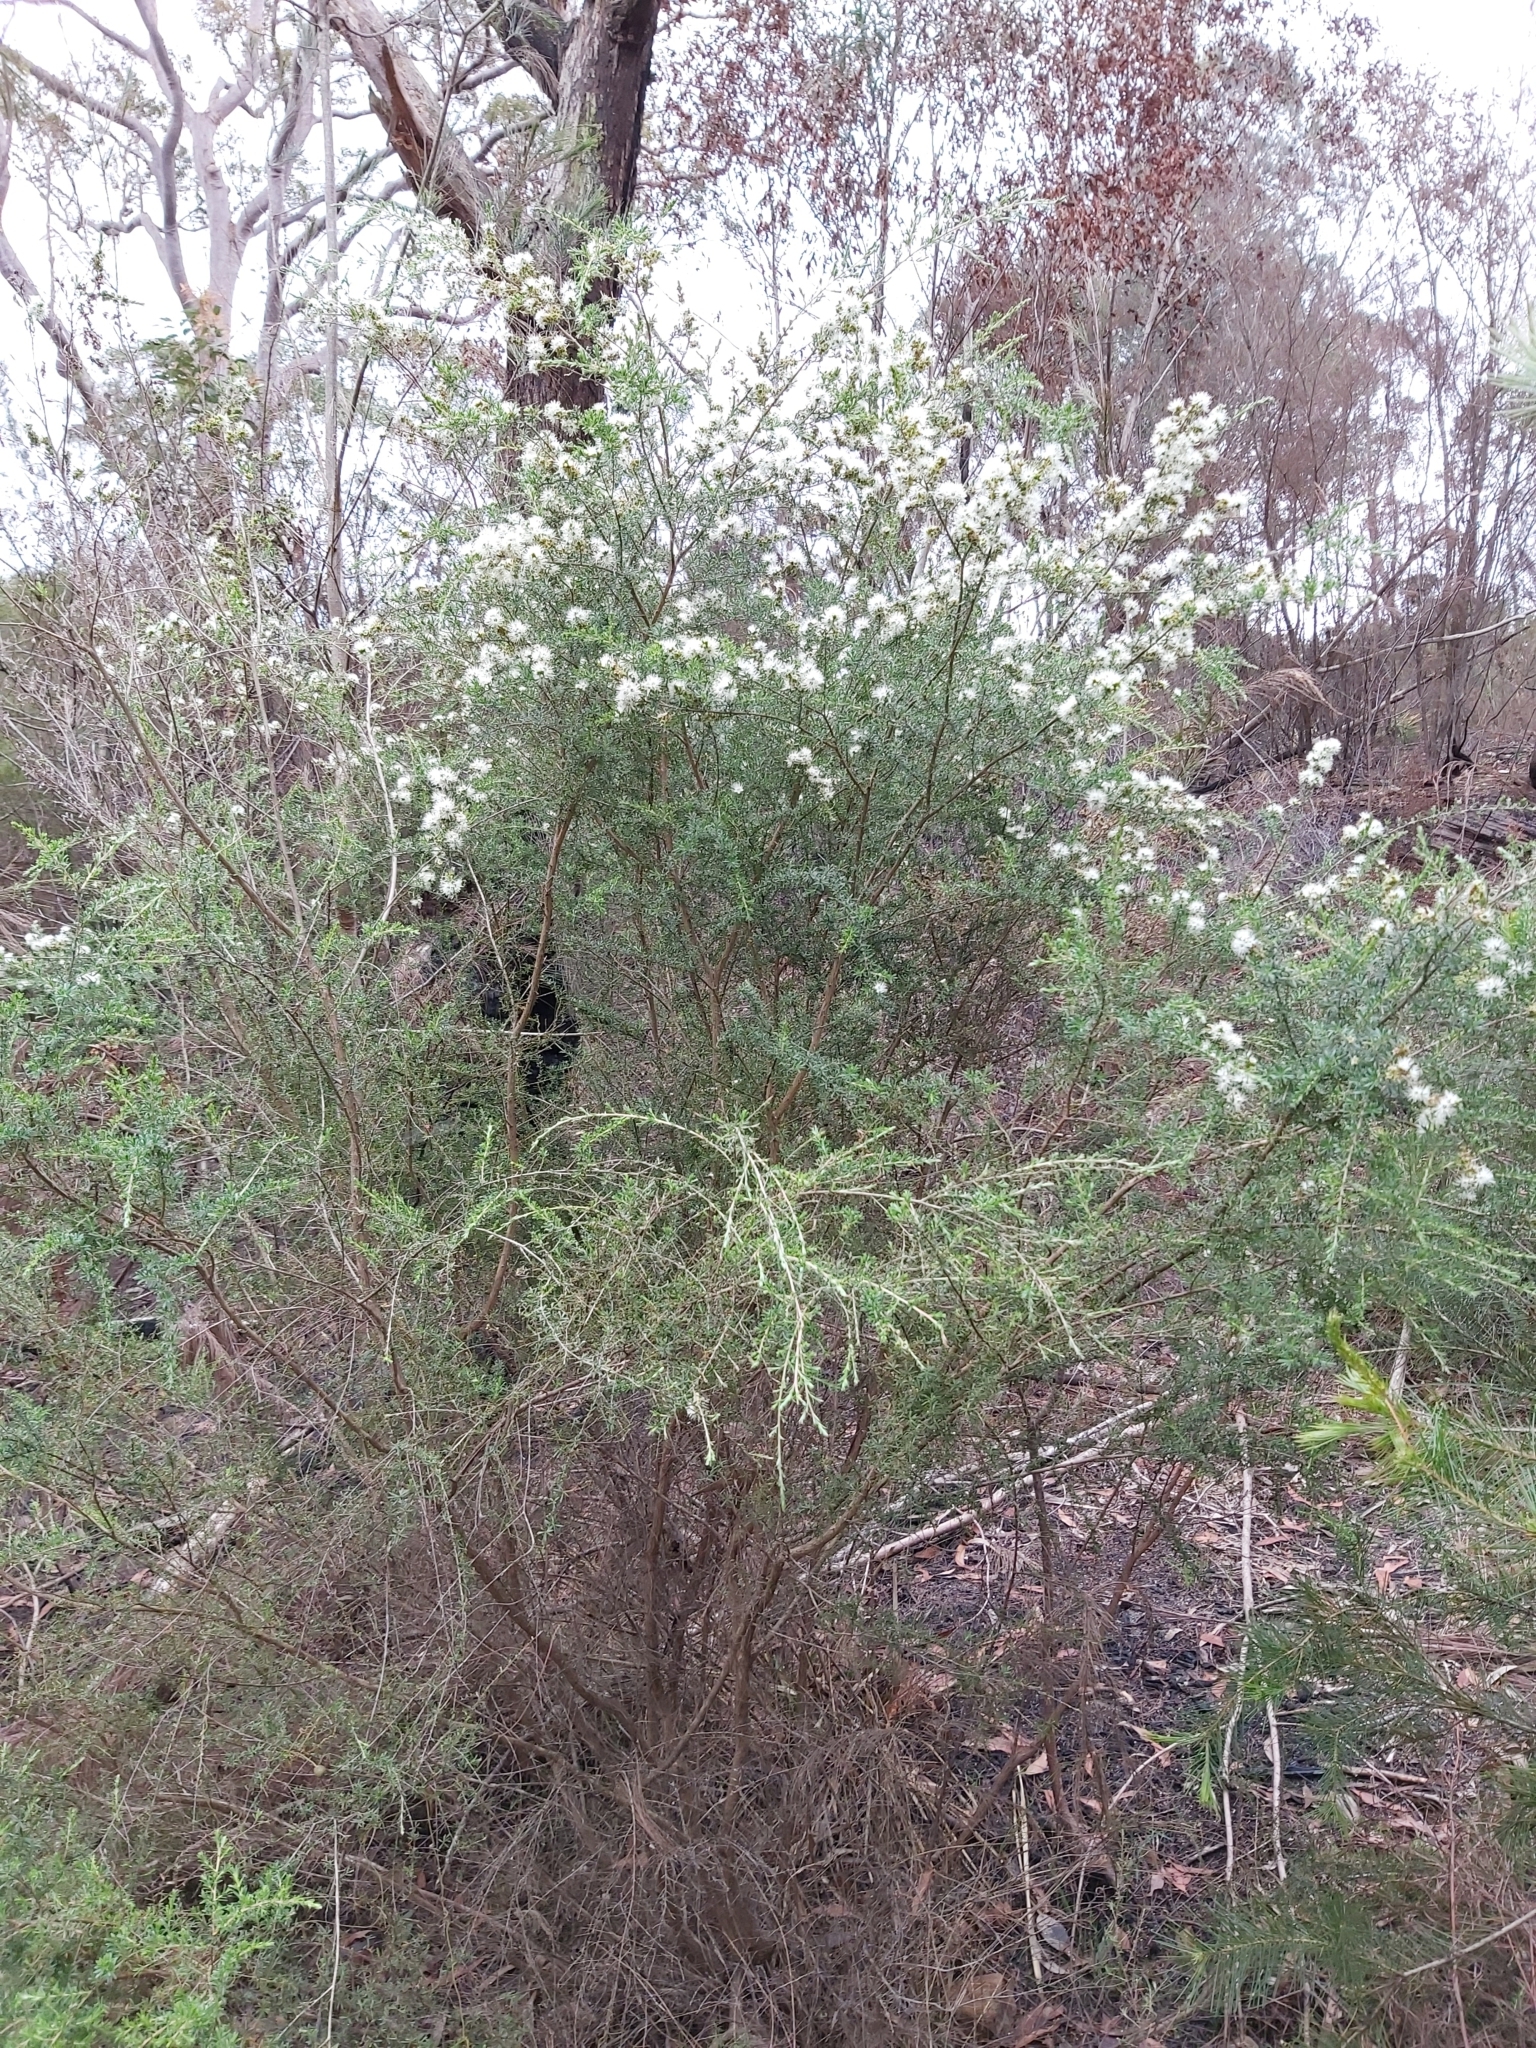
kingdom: Plantae
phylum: Tracheophyta
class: Magnoliopsida
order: Myrtales
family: Myrtaceae
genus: Kunzea
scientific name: Kunzea ambigua
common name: Tickbush
